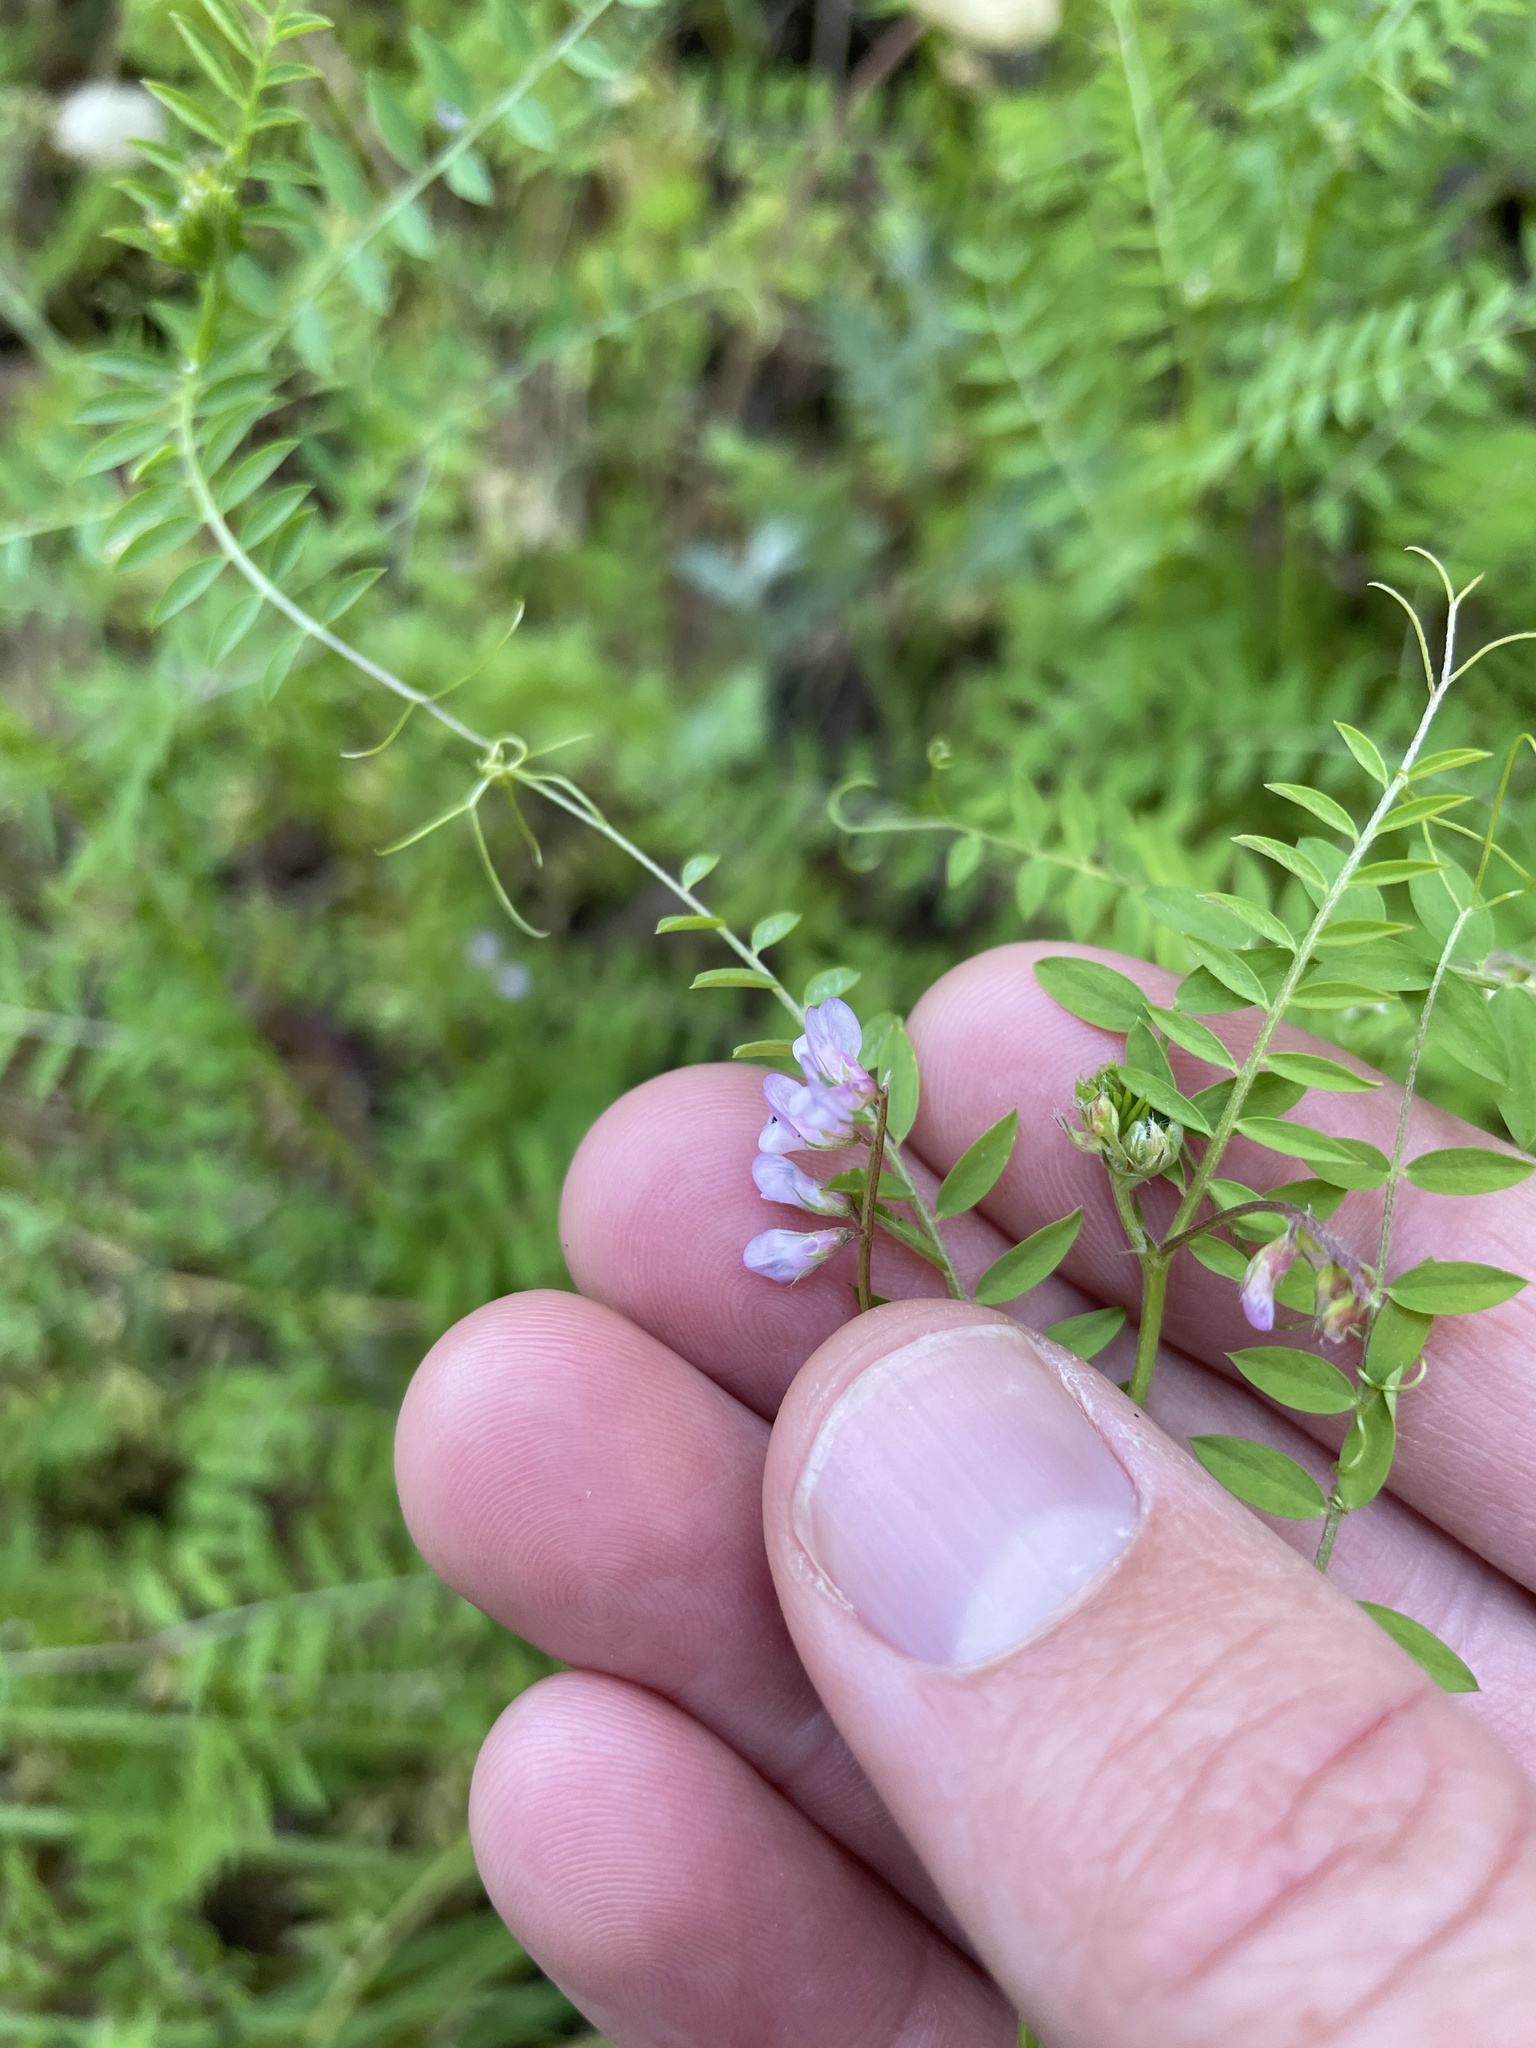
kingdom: Plantae
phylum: Tracheophyta
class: Magnoliopsida
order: Fabales
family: Fabaceae
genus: Vicia
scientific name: Vicia disperma
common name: European vetch
